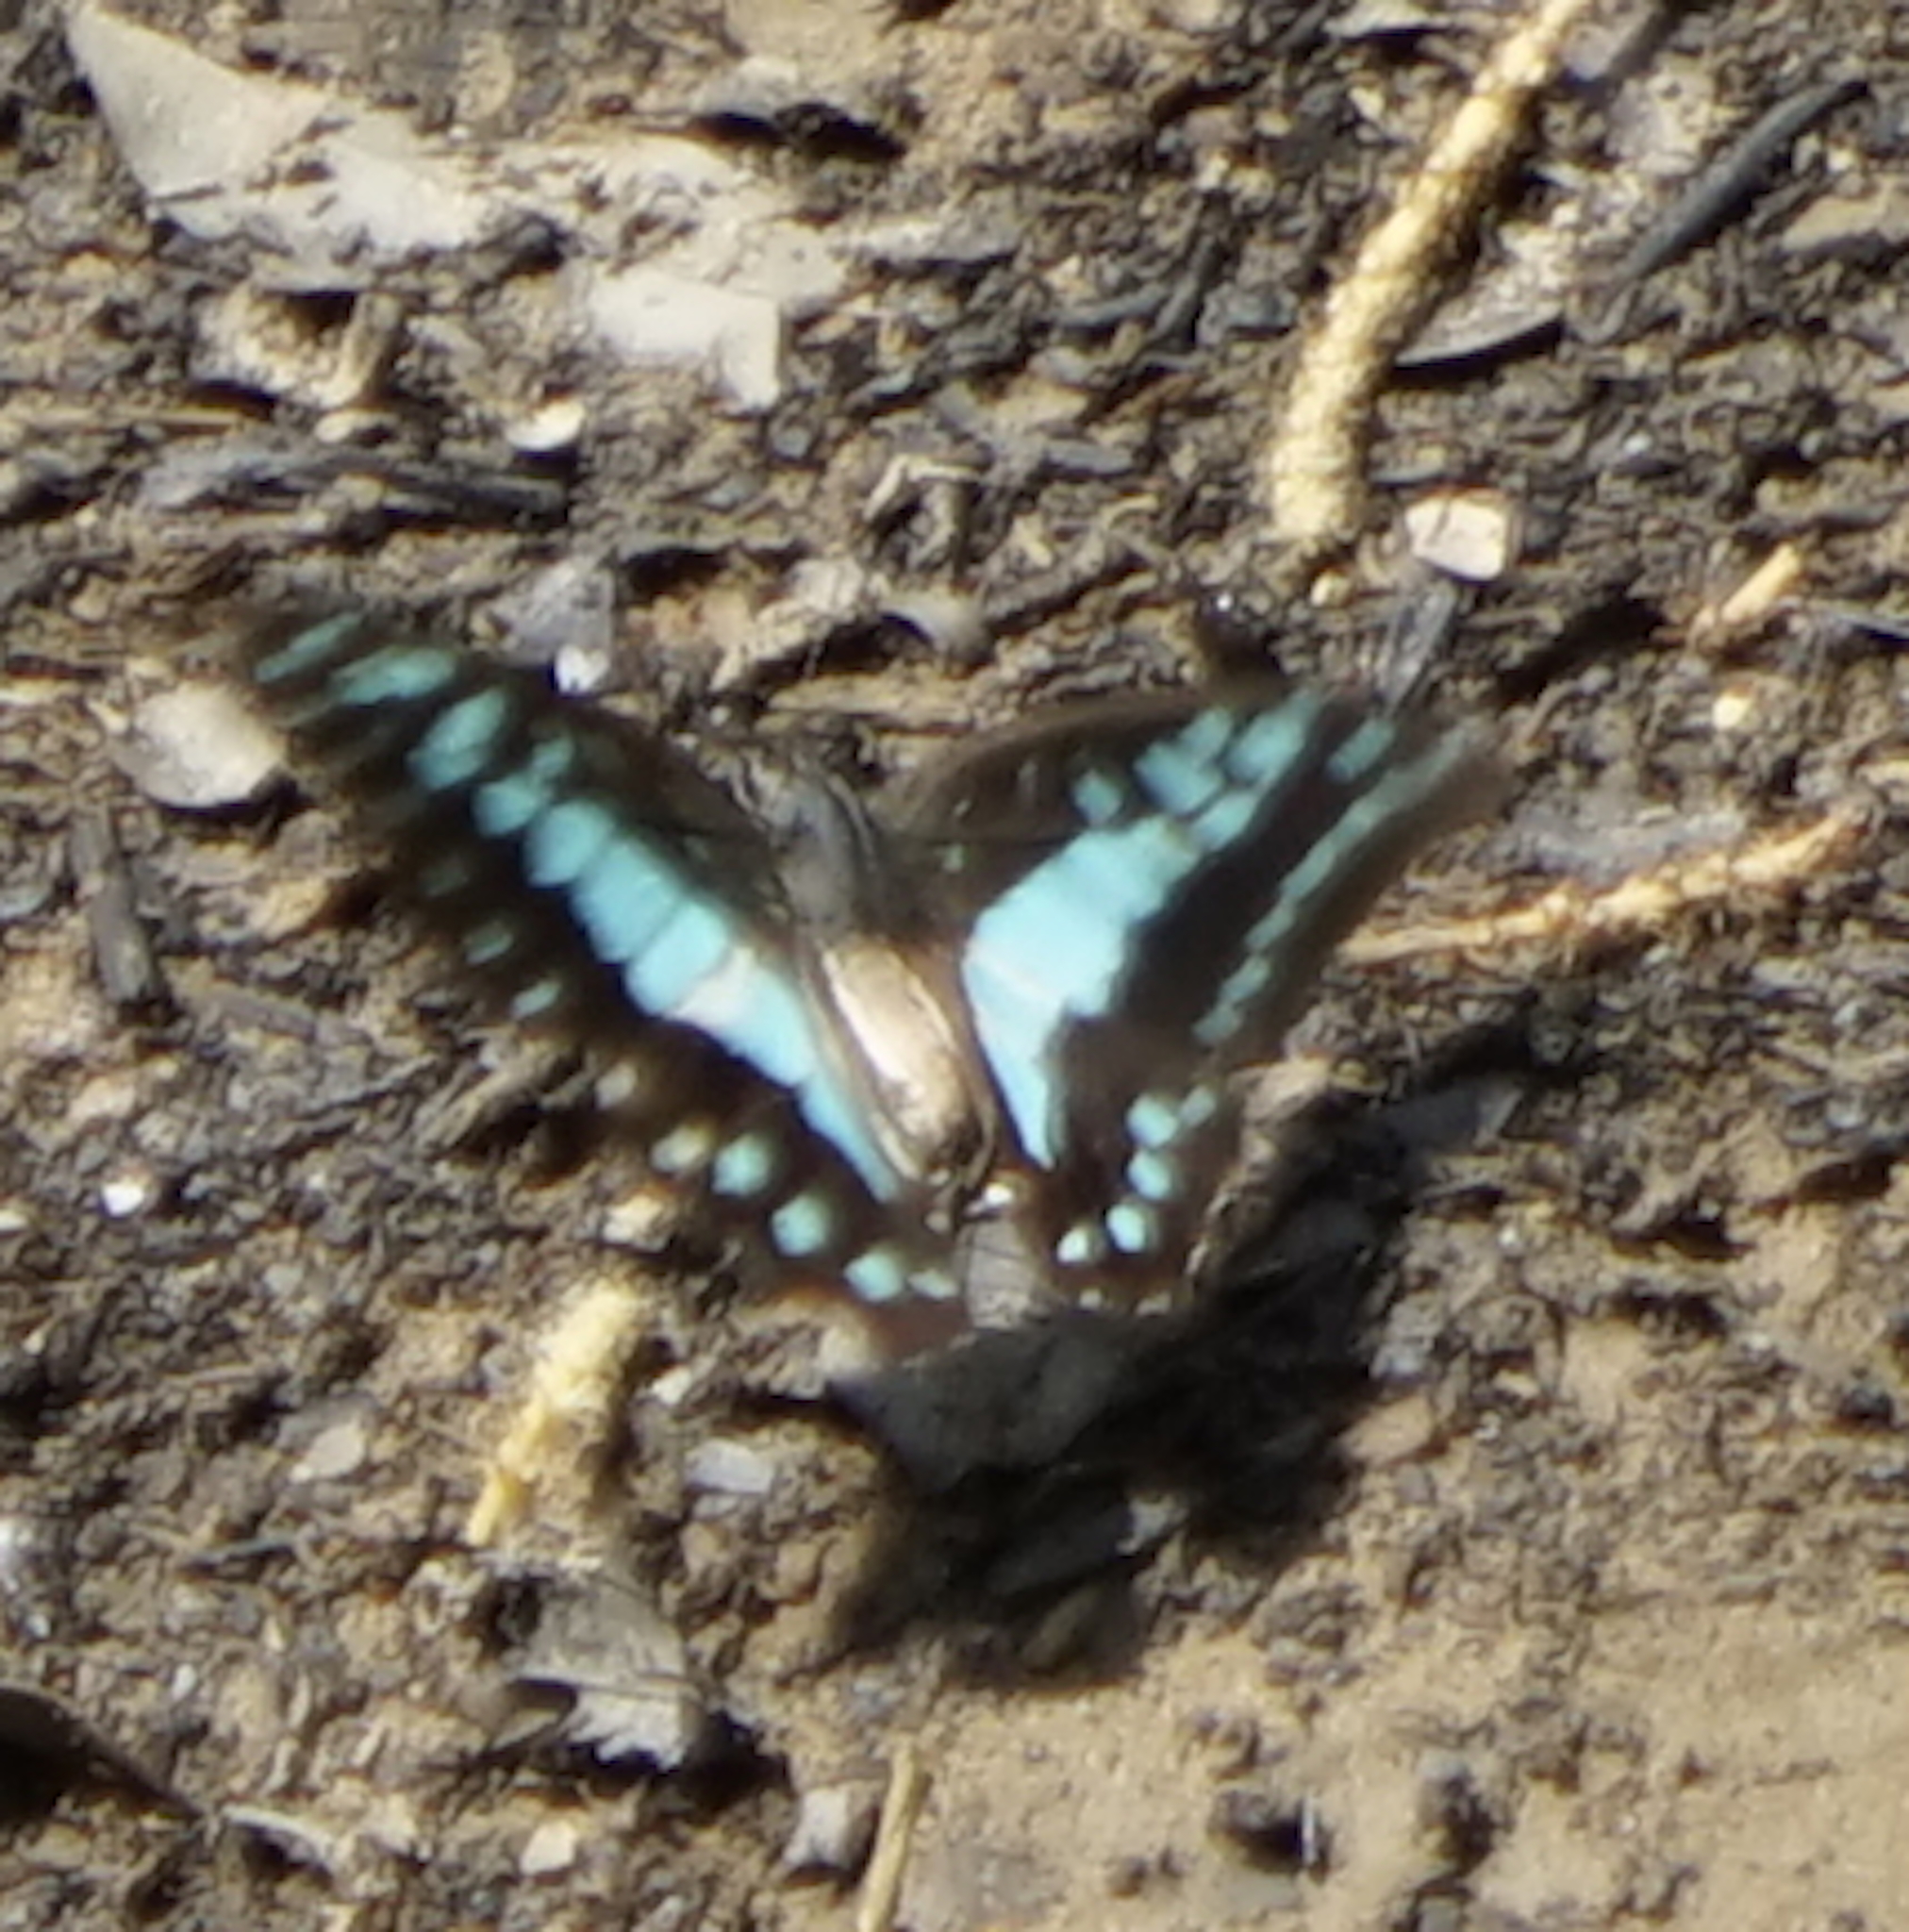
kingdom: Animalia
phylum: Arthropoda
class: Insecta
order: Lepidoptera
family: Papilionidae
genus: Graphium
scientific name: Graphium evemon
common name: Lesser jay
